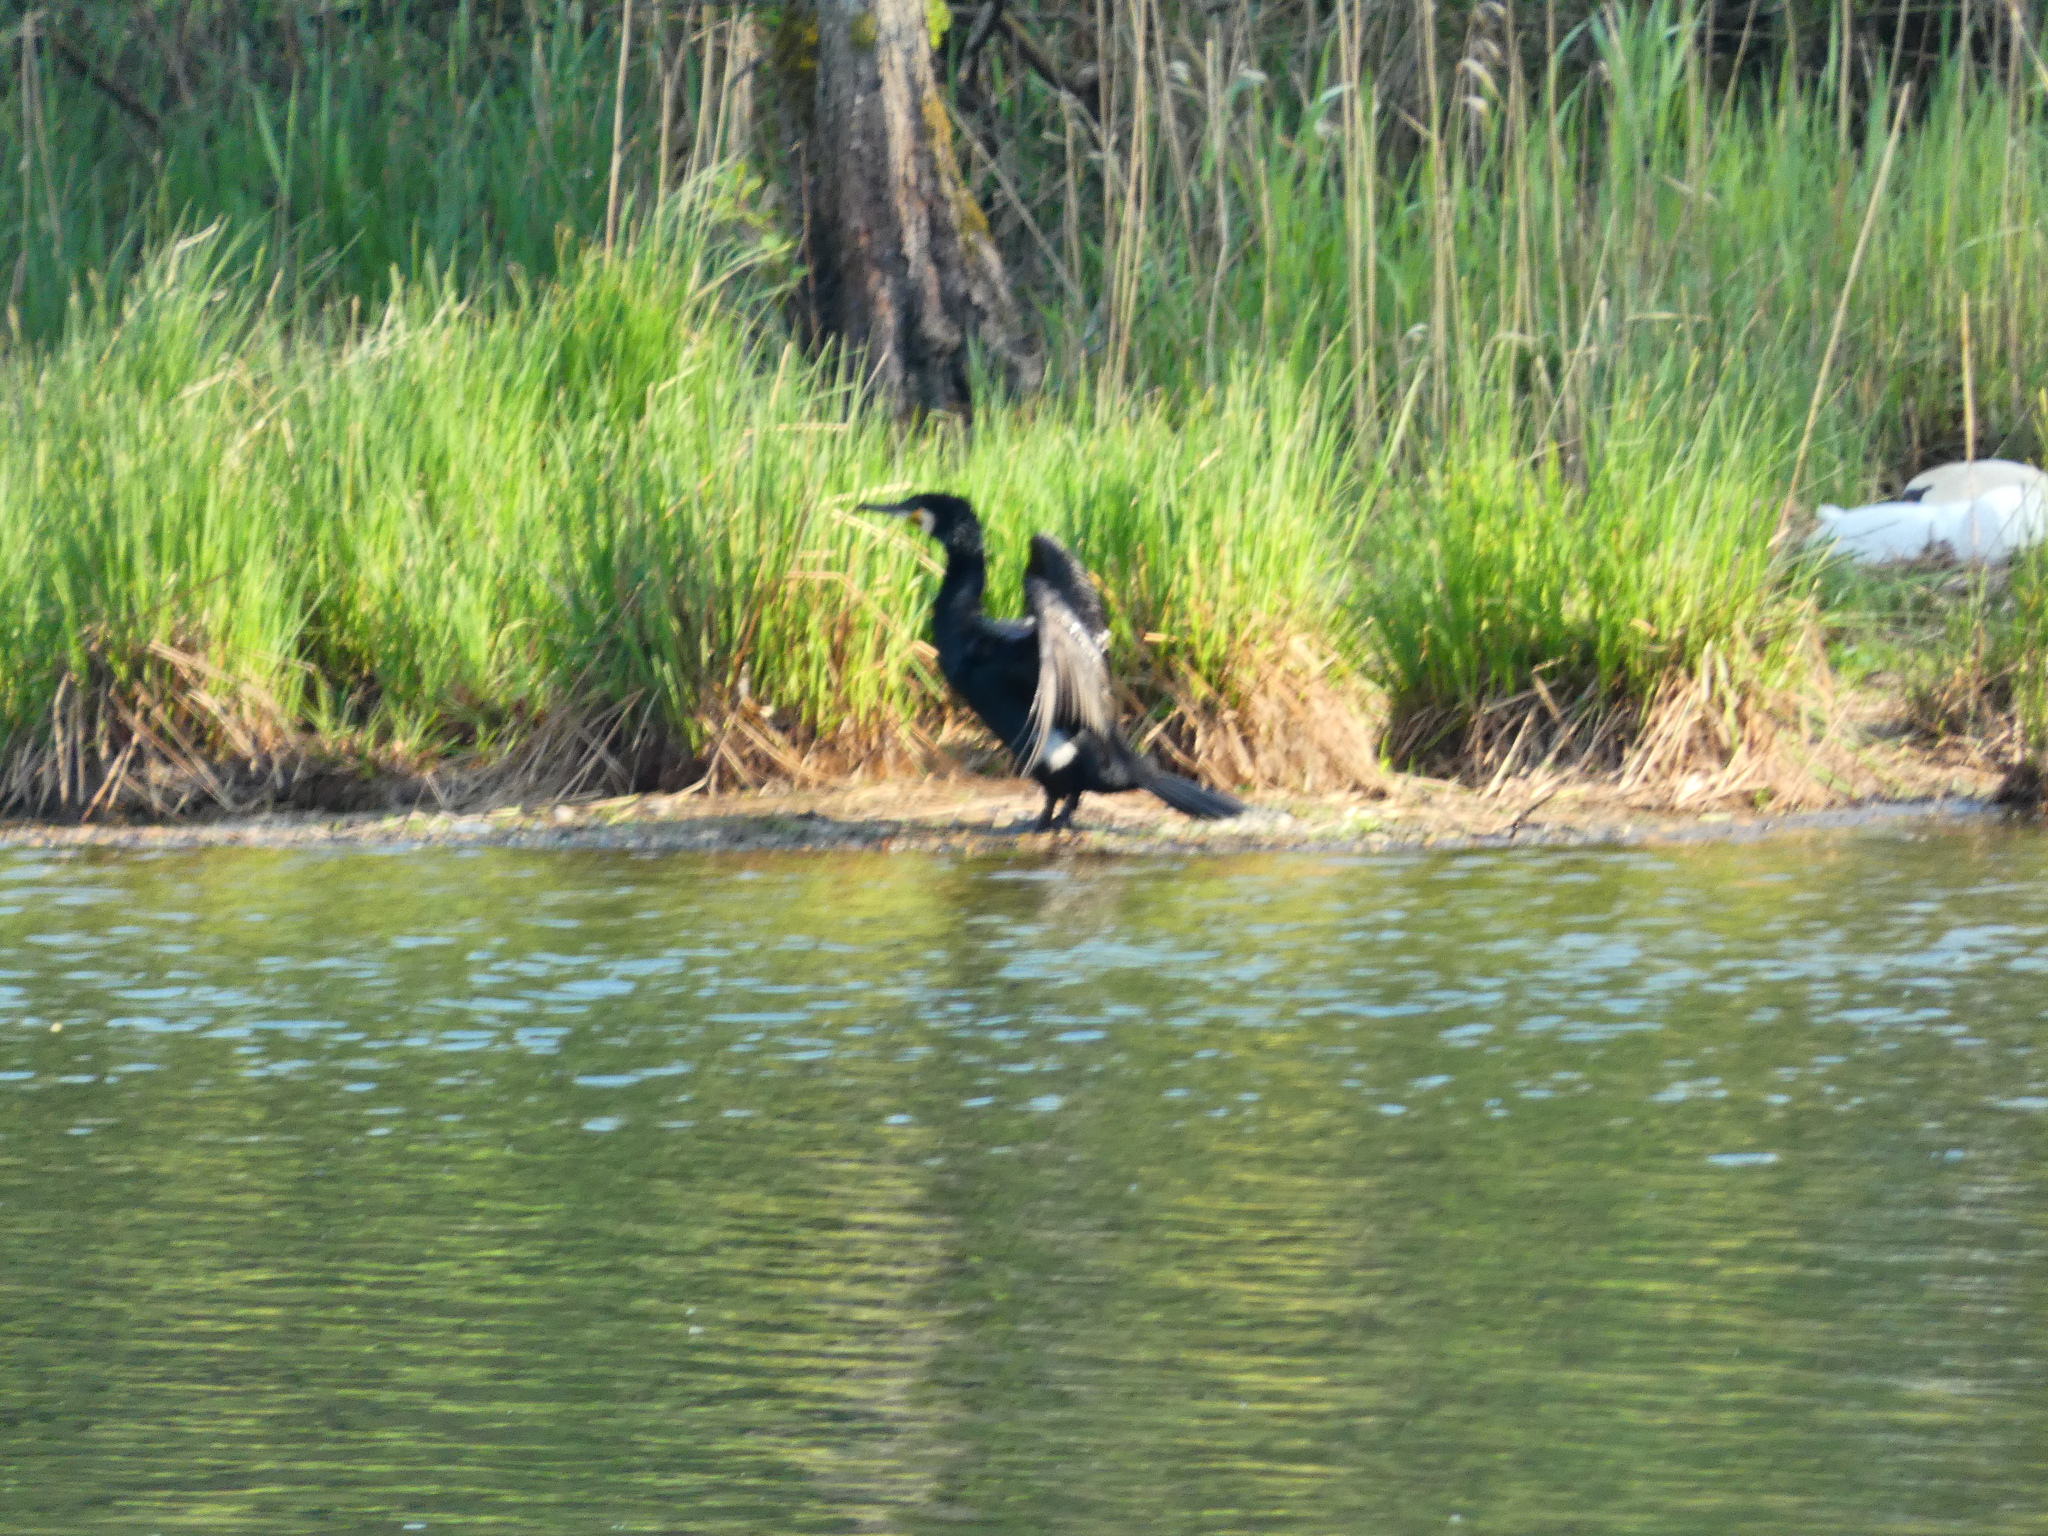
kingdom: Animalia
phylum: Chordata
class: Aves
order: Suliformes
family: Phalacrocoracidae
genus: Phalacrocorax
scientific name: Phalacrocorax carbo
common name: Great cormorant
